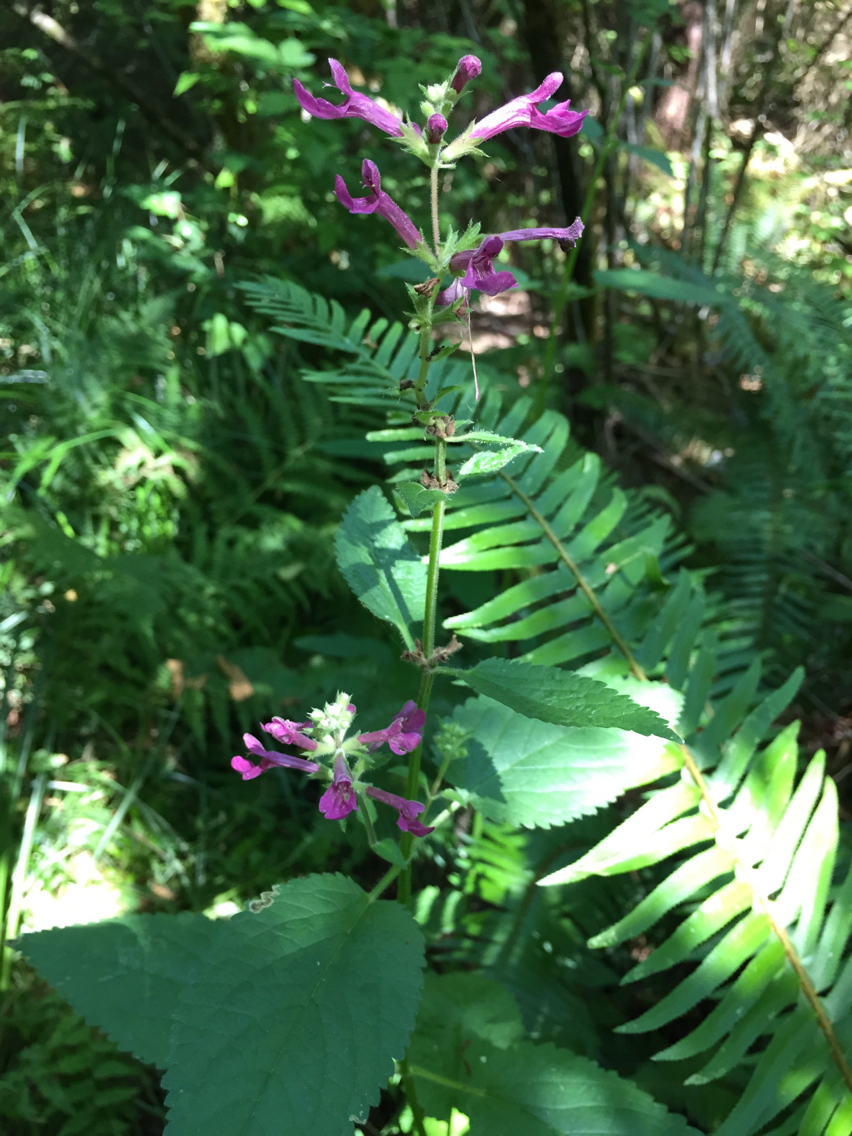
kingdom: Plantae
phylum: Tracheophyta
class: Magnoliopsida
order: Lamiales
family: Lamiaceae
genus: Stachys
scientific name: Stachys chamissonis
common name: Coastal hedge-nettle
